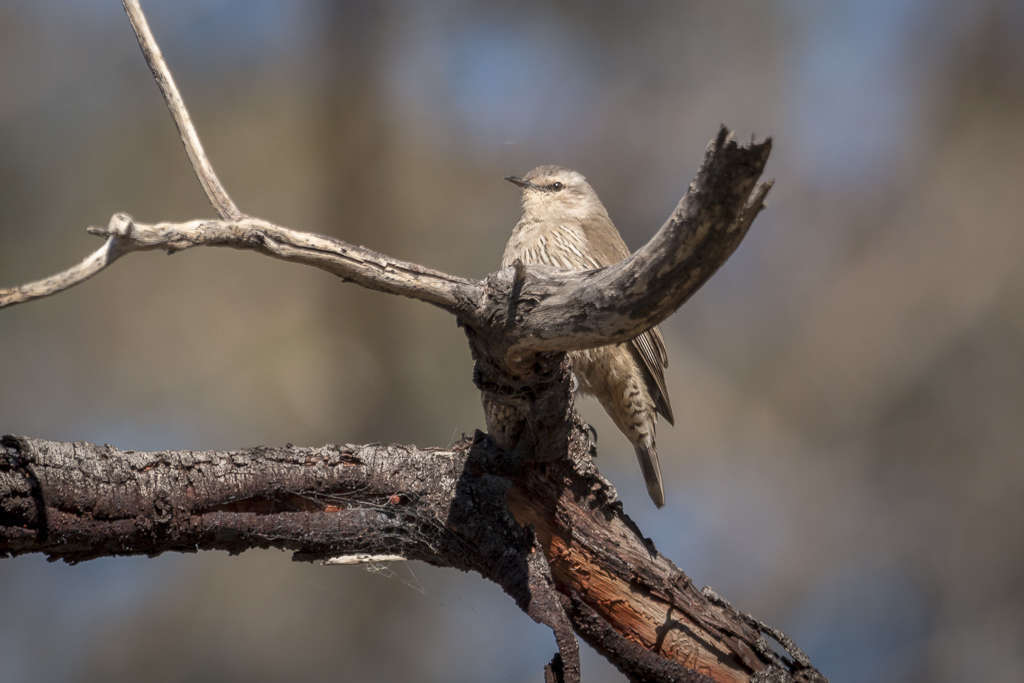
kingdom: Animalia
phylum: Chordata
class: Aves
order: Passeriformes
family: Climacteridae
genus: Climacteris
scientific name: Climacteris picumnus
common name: Brown treecreeper
